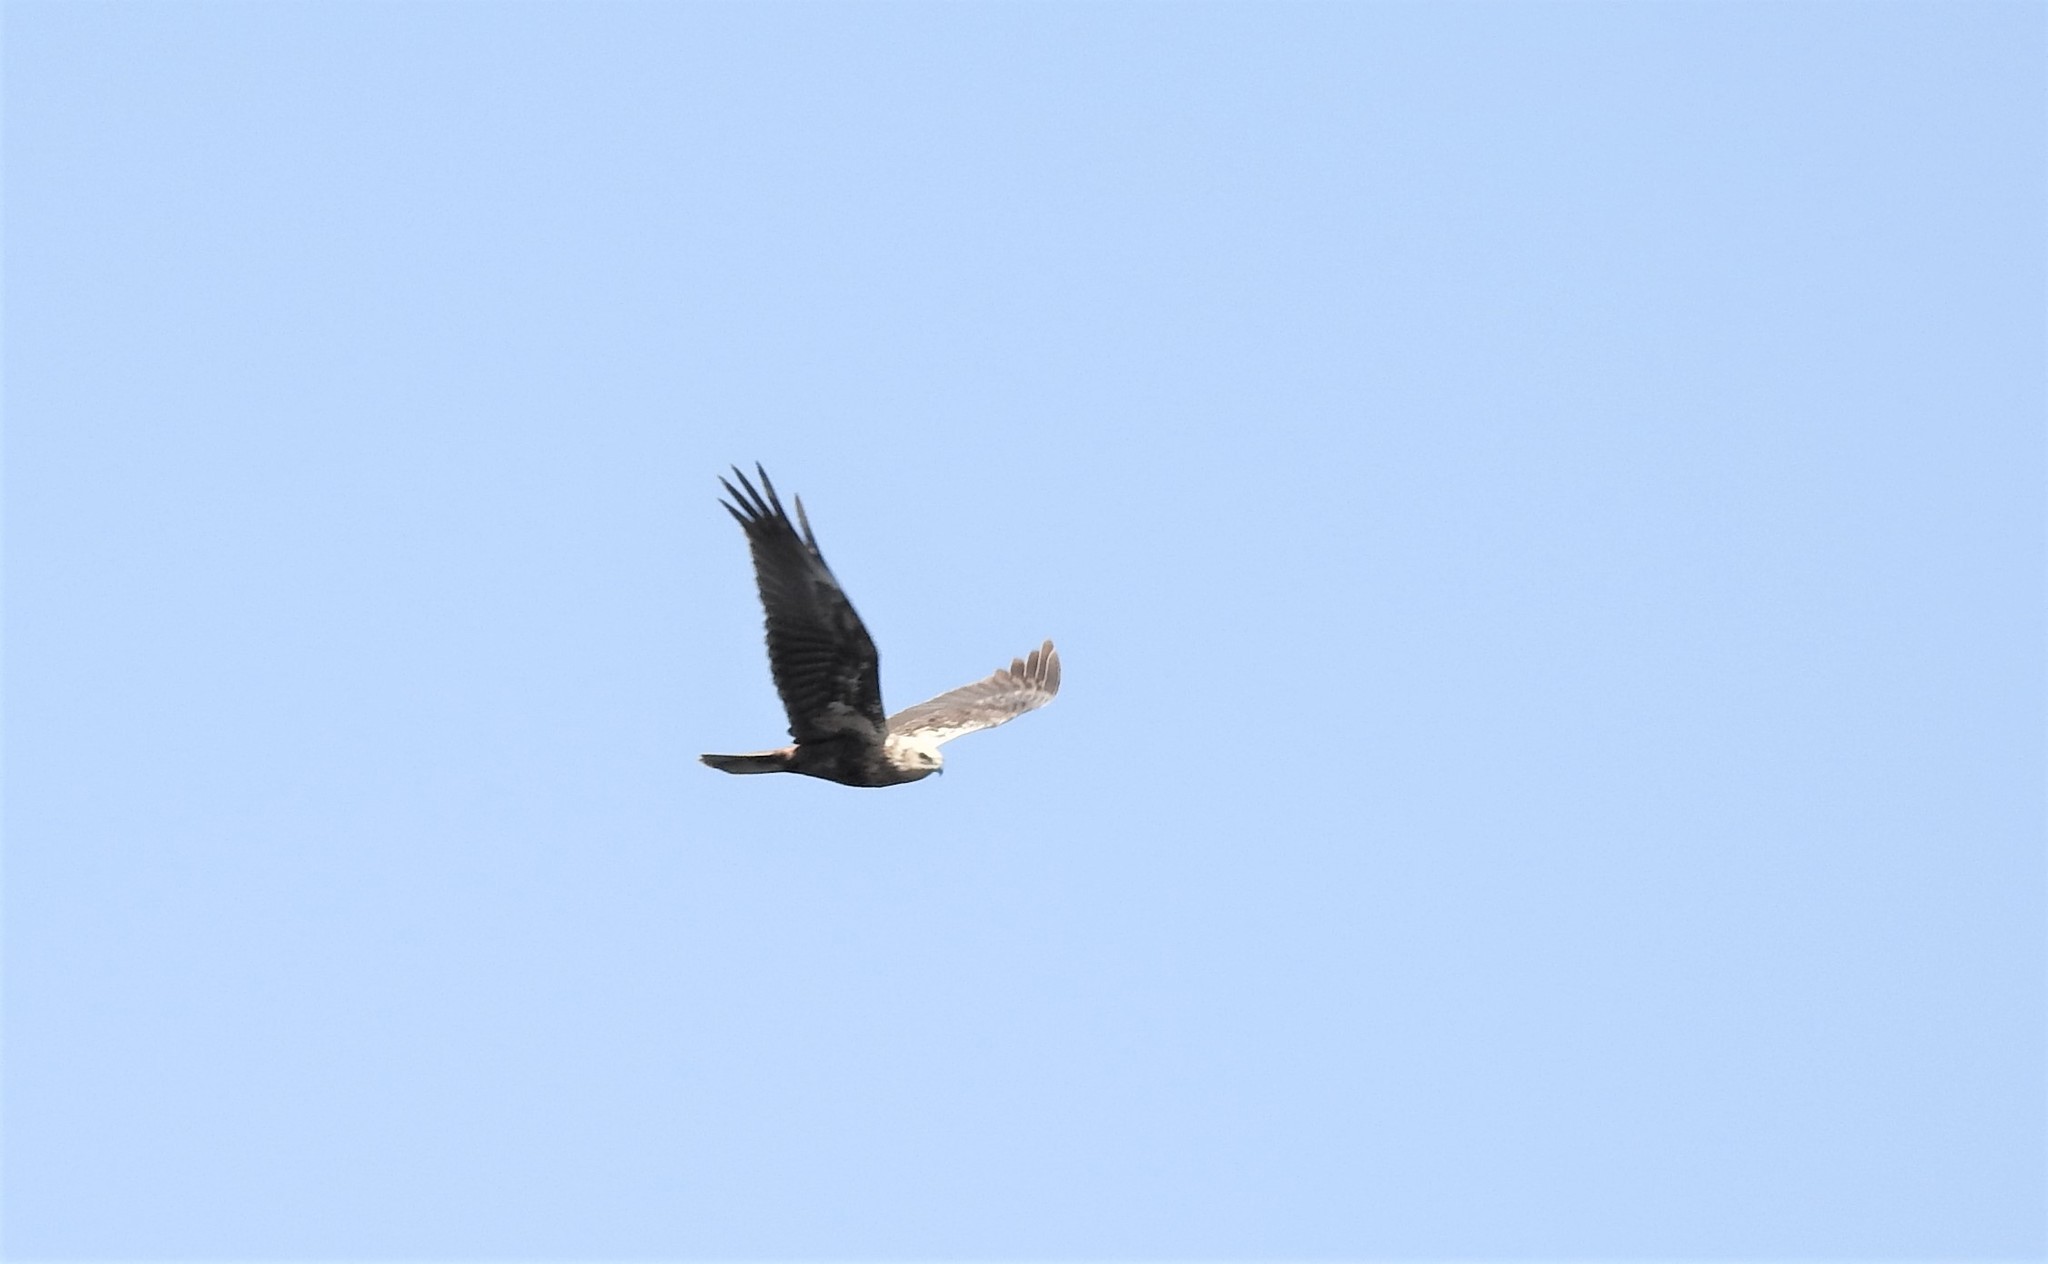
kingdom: Animalia
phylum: Chordata
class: Aves
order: Accipitriformes
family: Accipitridae
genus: Circus
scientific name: Circus aeruginosus
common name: Western marsh harrier
